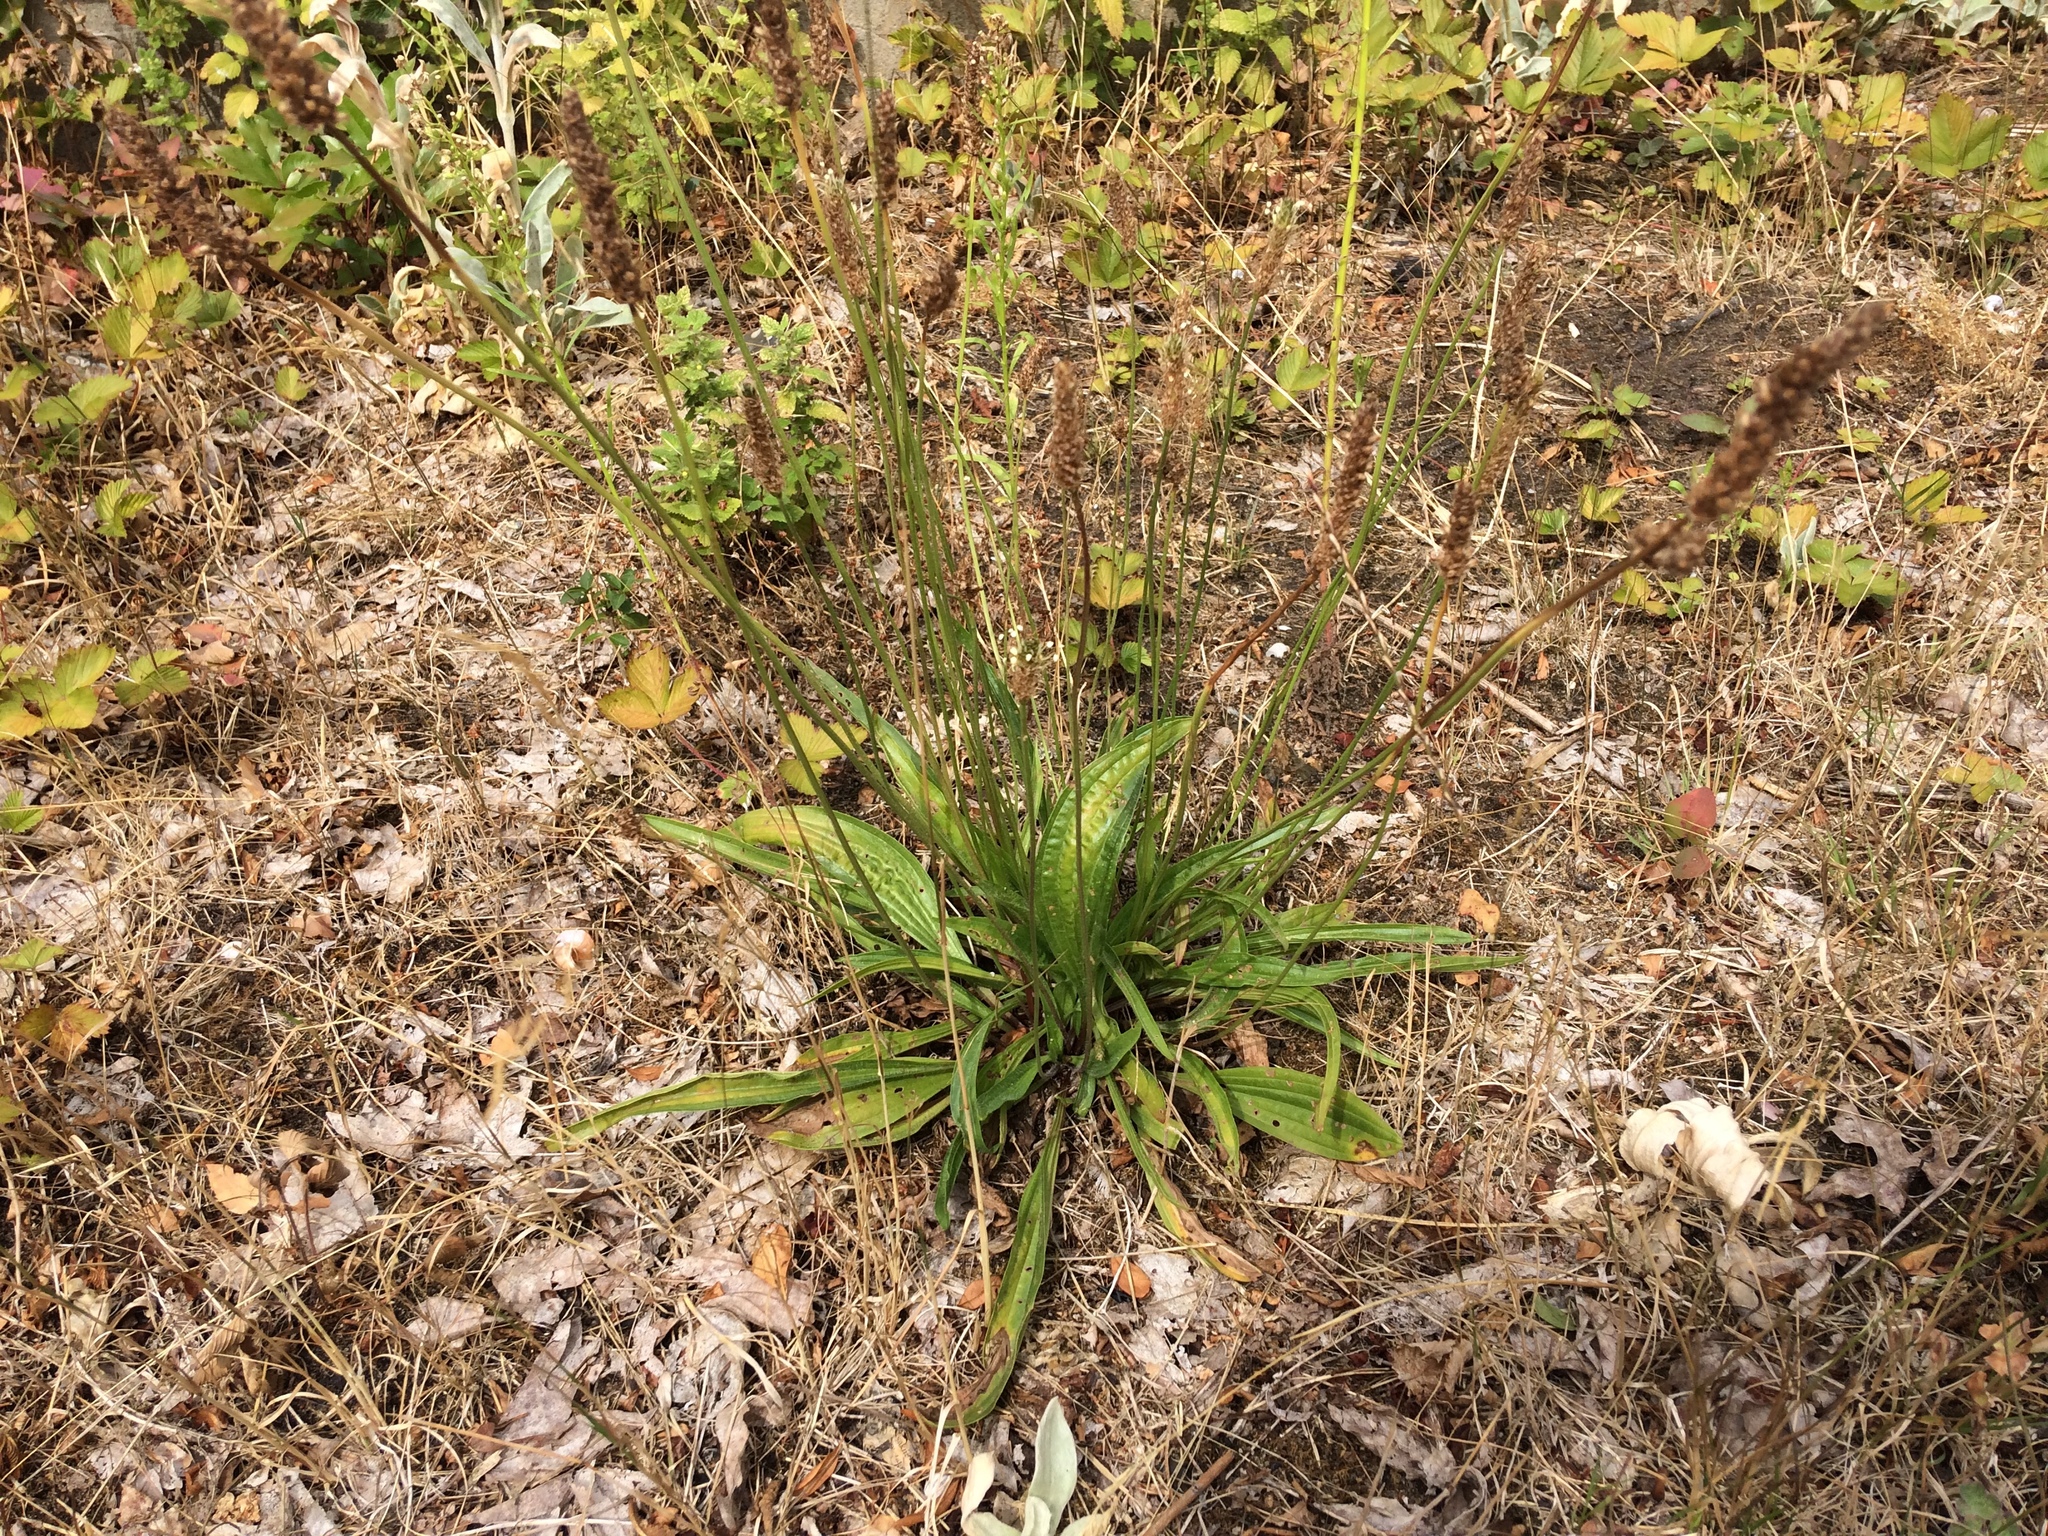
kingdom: Plantae
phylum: Tracheophyta
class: Magnoliopsida
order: Lamiales
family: Plantaginaceae
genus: Plantago
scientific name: Plantago lanceolata
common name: Ribwort plantain
